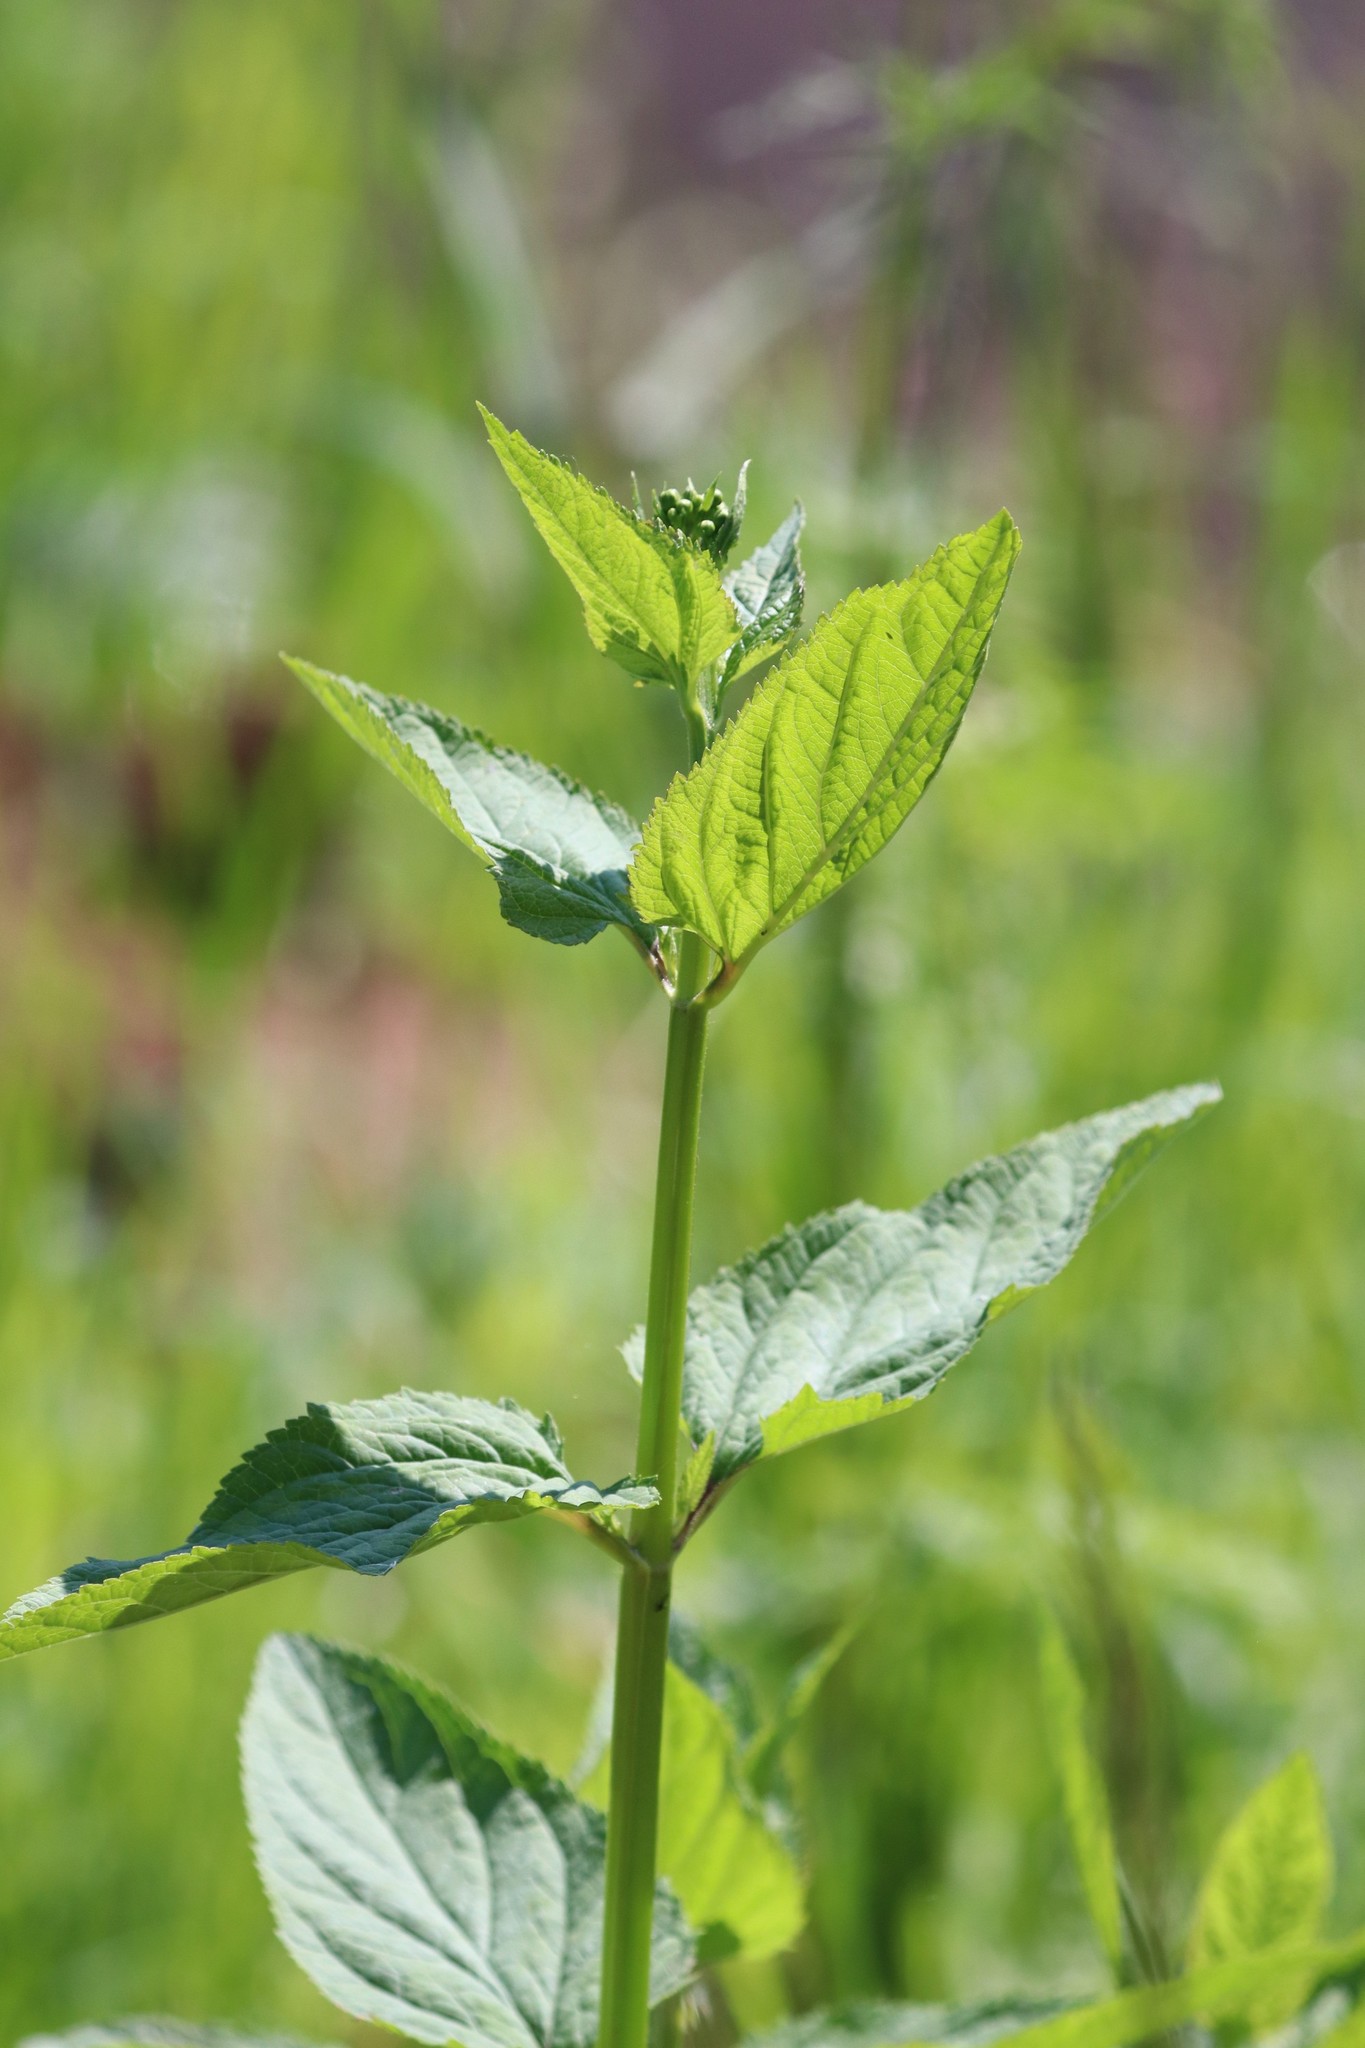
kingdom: Plantae
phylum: Tracheophyta
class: Magnoliopsida
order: Lamiales
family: Scrophulariaceae
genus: Scrophularia
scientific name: Scrophularia nodosa
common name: Common figwort
